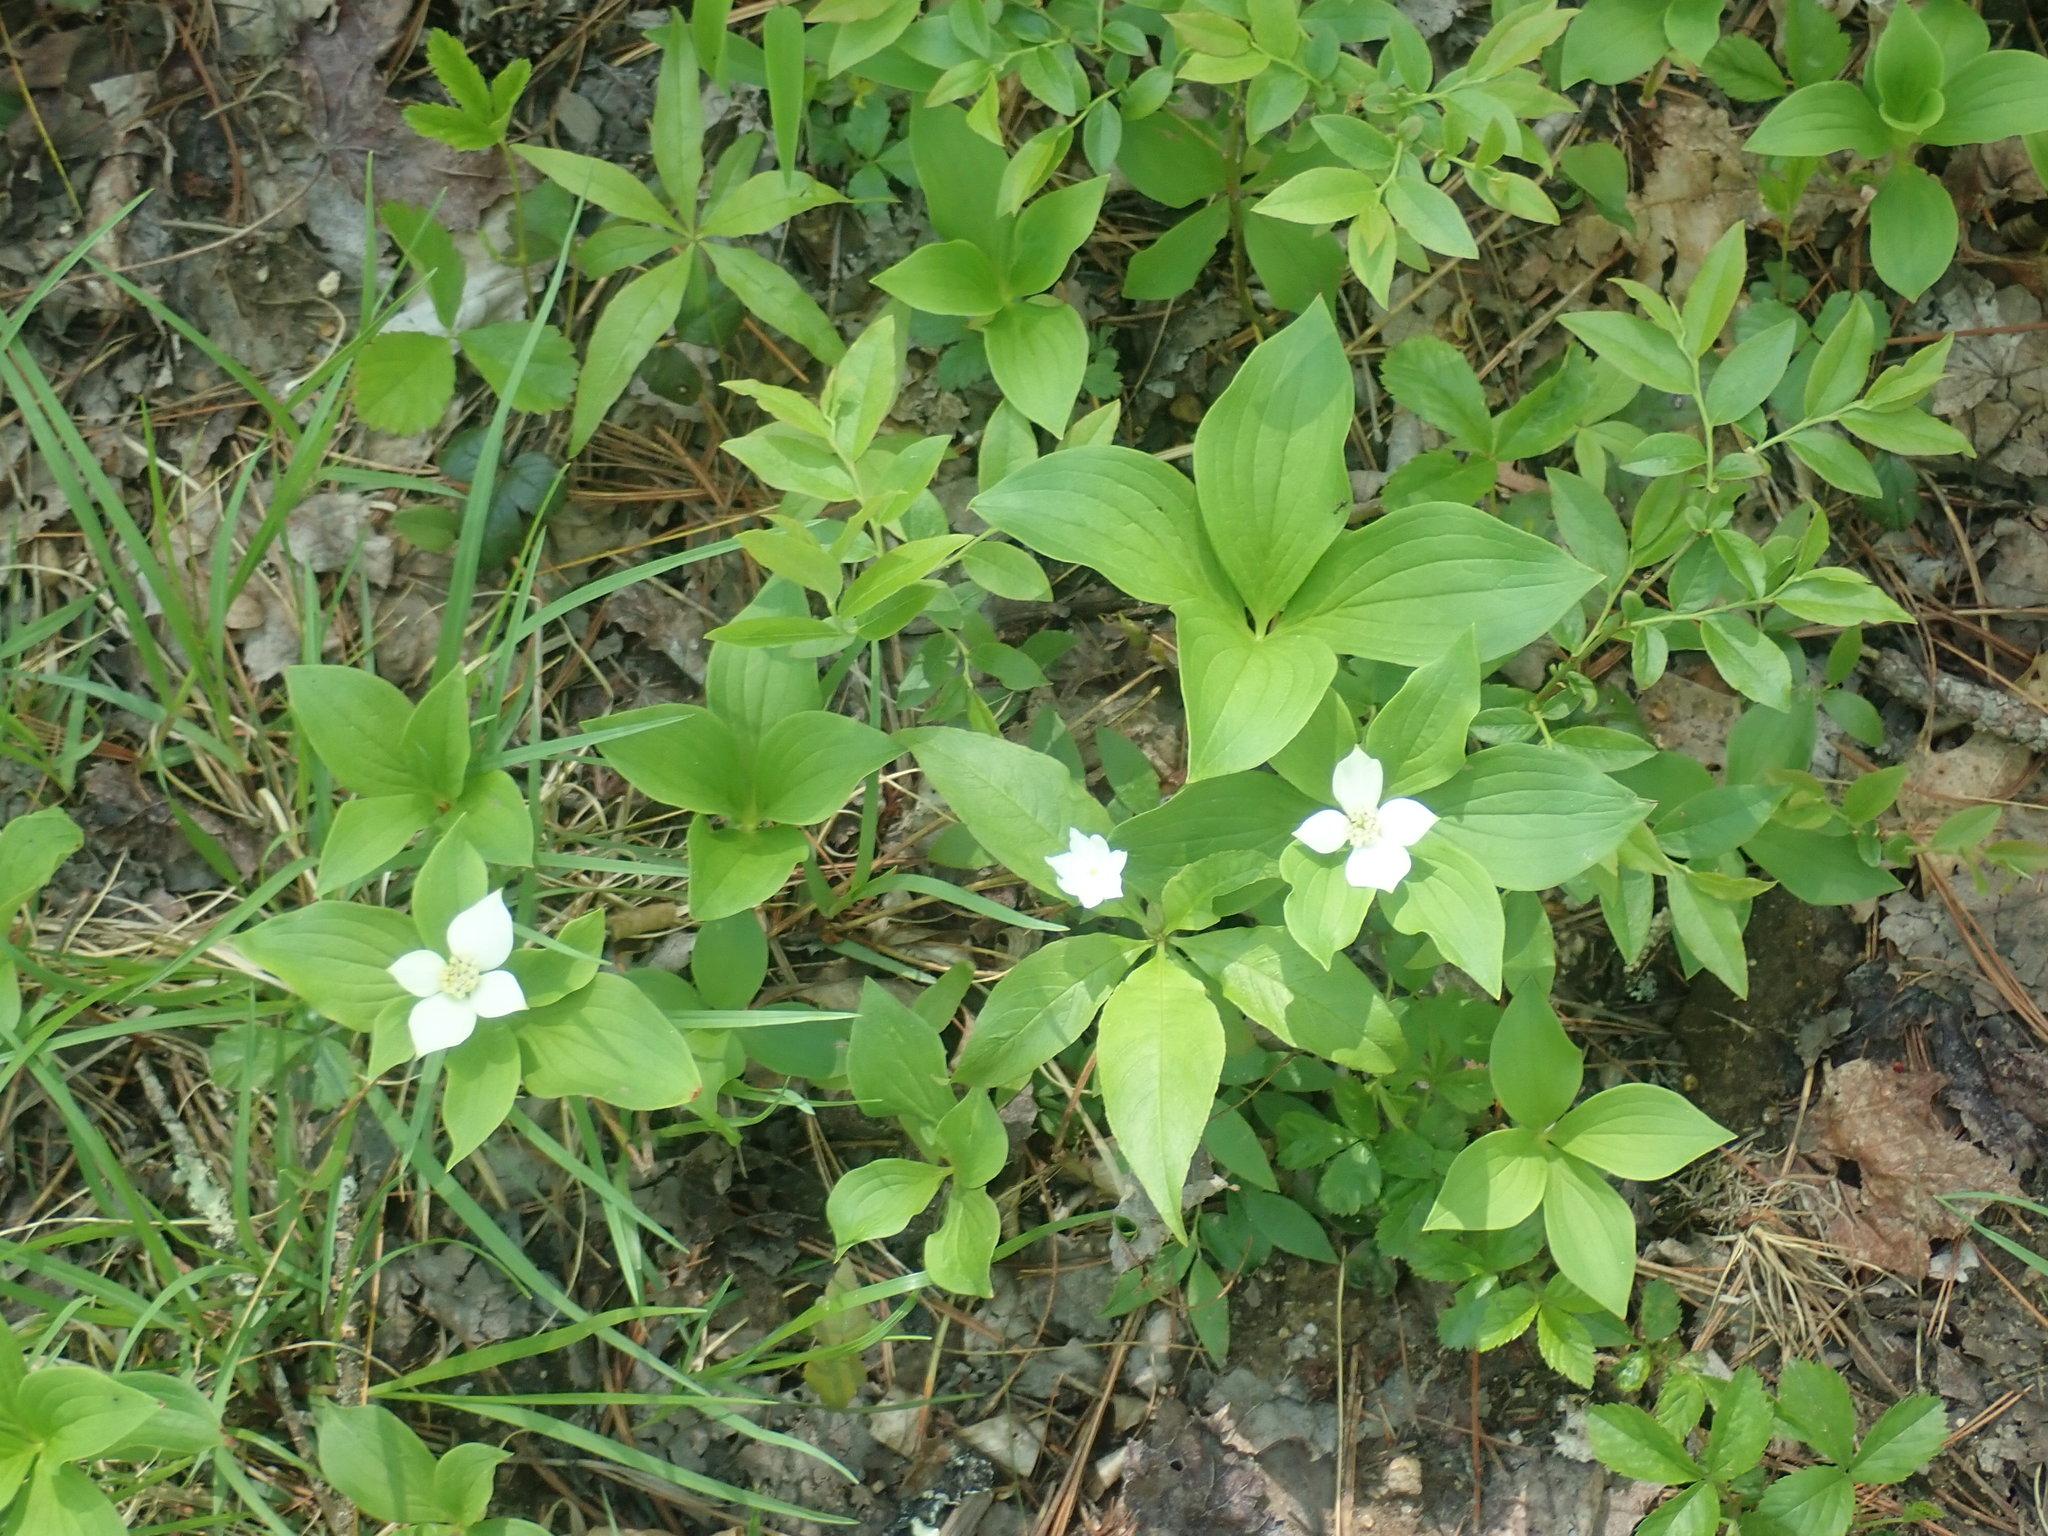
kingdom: Plantae
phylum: Tracheophyta
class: Magnoliopsida
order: Cornales
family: Cornaceae
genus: Cornus
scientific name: Cornus canadensis
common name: Creeping dogwood
